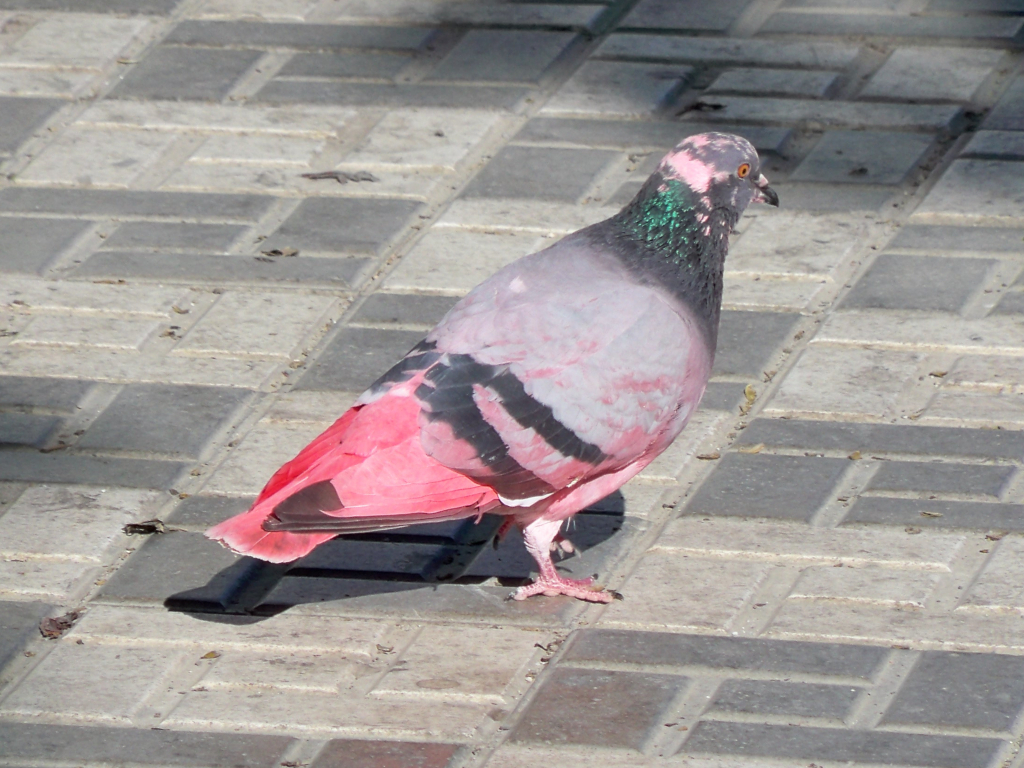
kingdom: Animalia
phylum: Chordata
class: Aves
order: Columbiformes
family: Columbidae
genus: Columba
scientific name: Columba livia
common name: Rock pigeon
